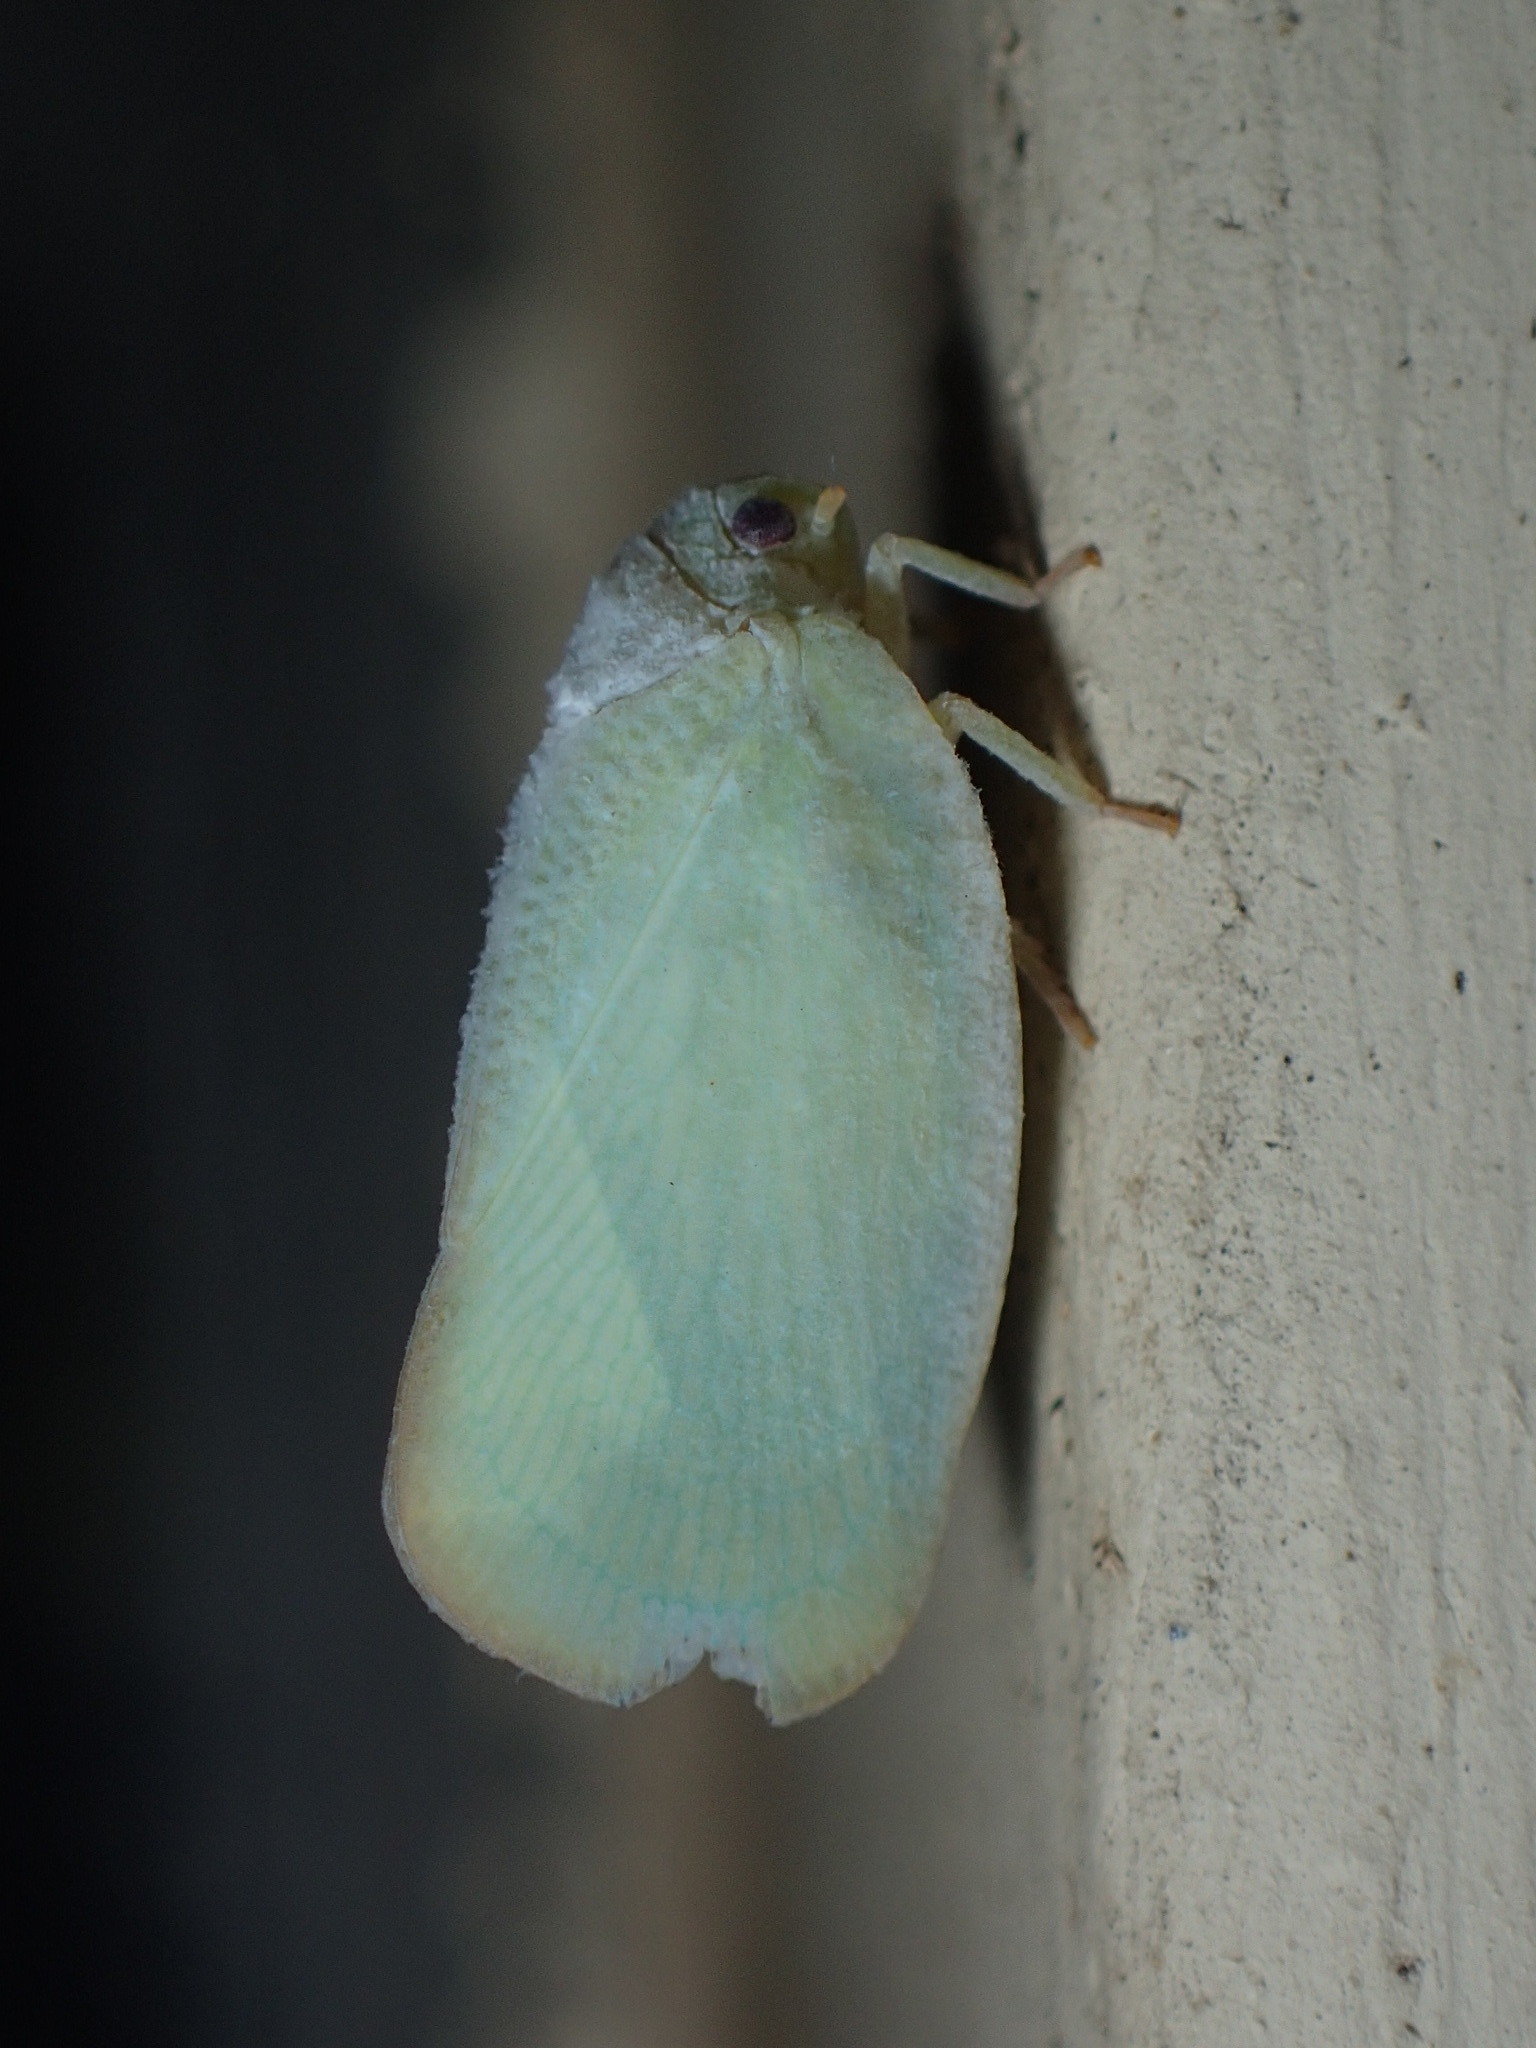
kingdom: Animalia
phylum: Arthropoda
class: Insecta
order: Hemiptera
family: Flatidae
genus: Ormenoides
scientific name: Ormenoides venusta
